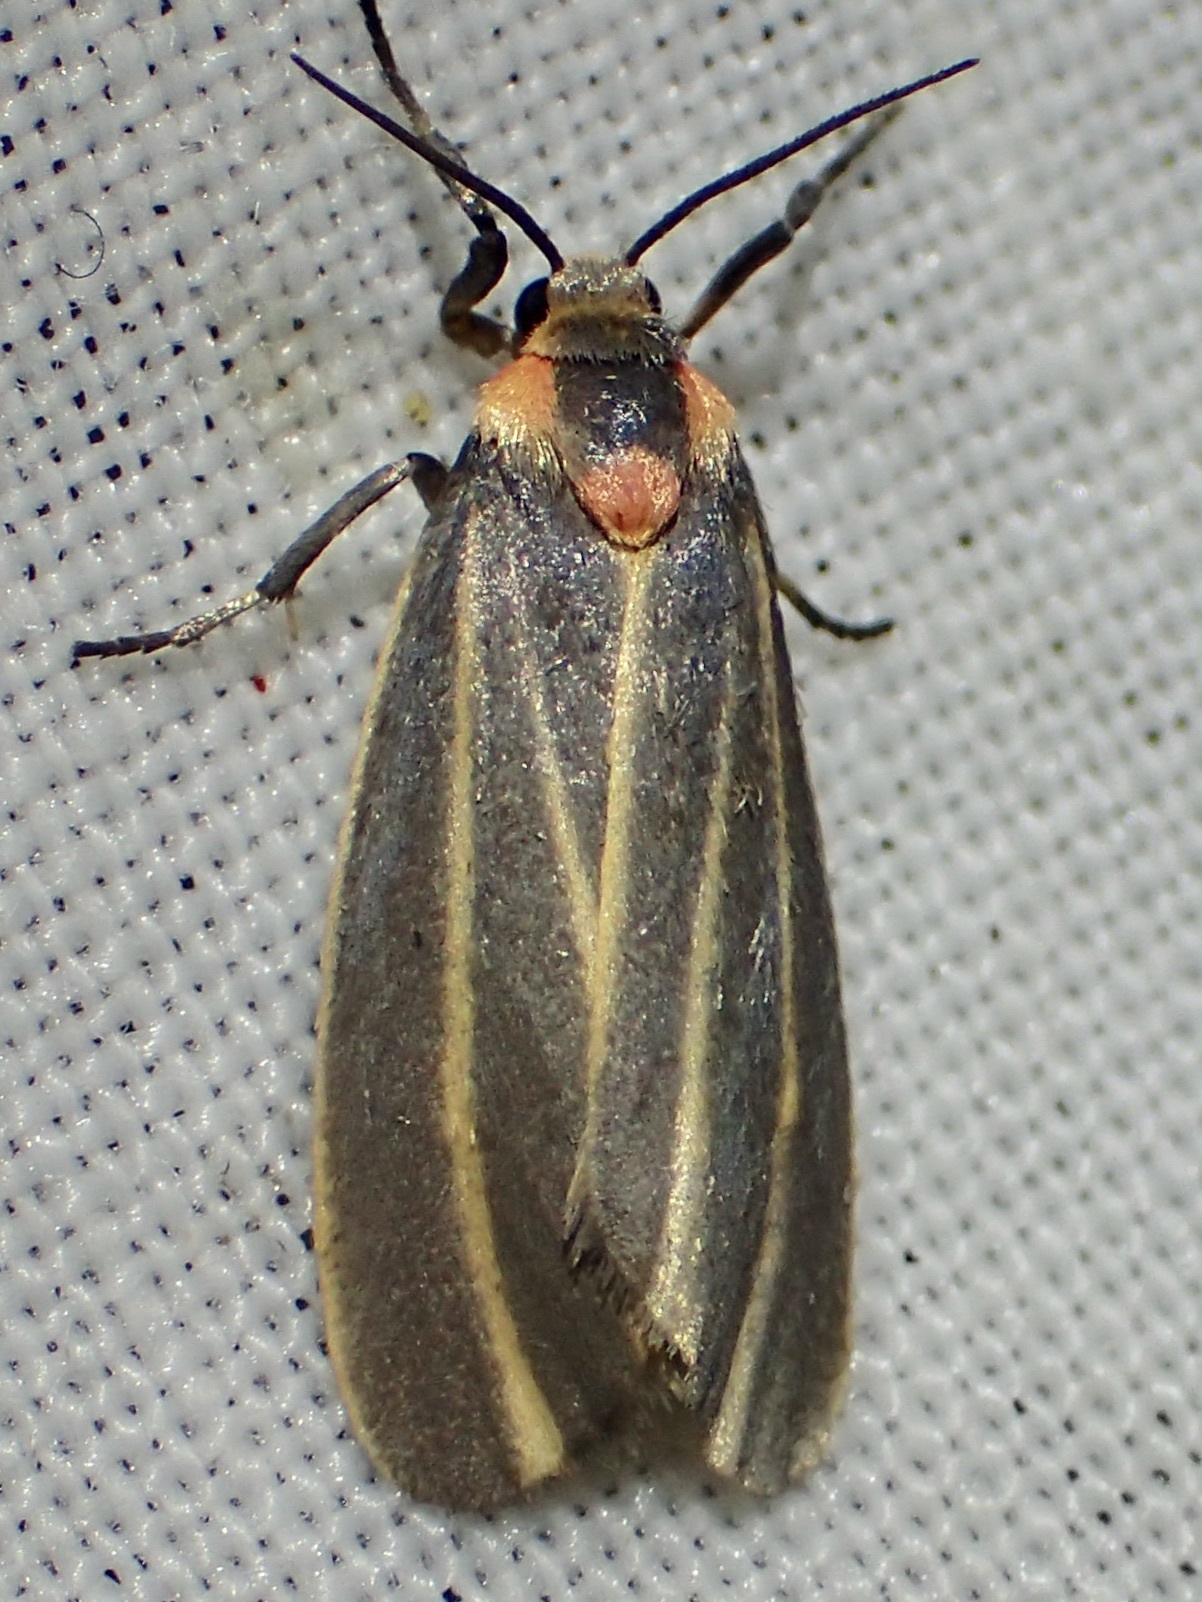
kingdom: Animalia
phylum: Arthropoda
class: Insecta
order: Lepidoptera
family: Erebidae
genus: Haematomis
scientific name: Haematomis uniformis
